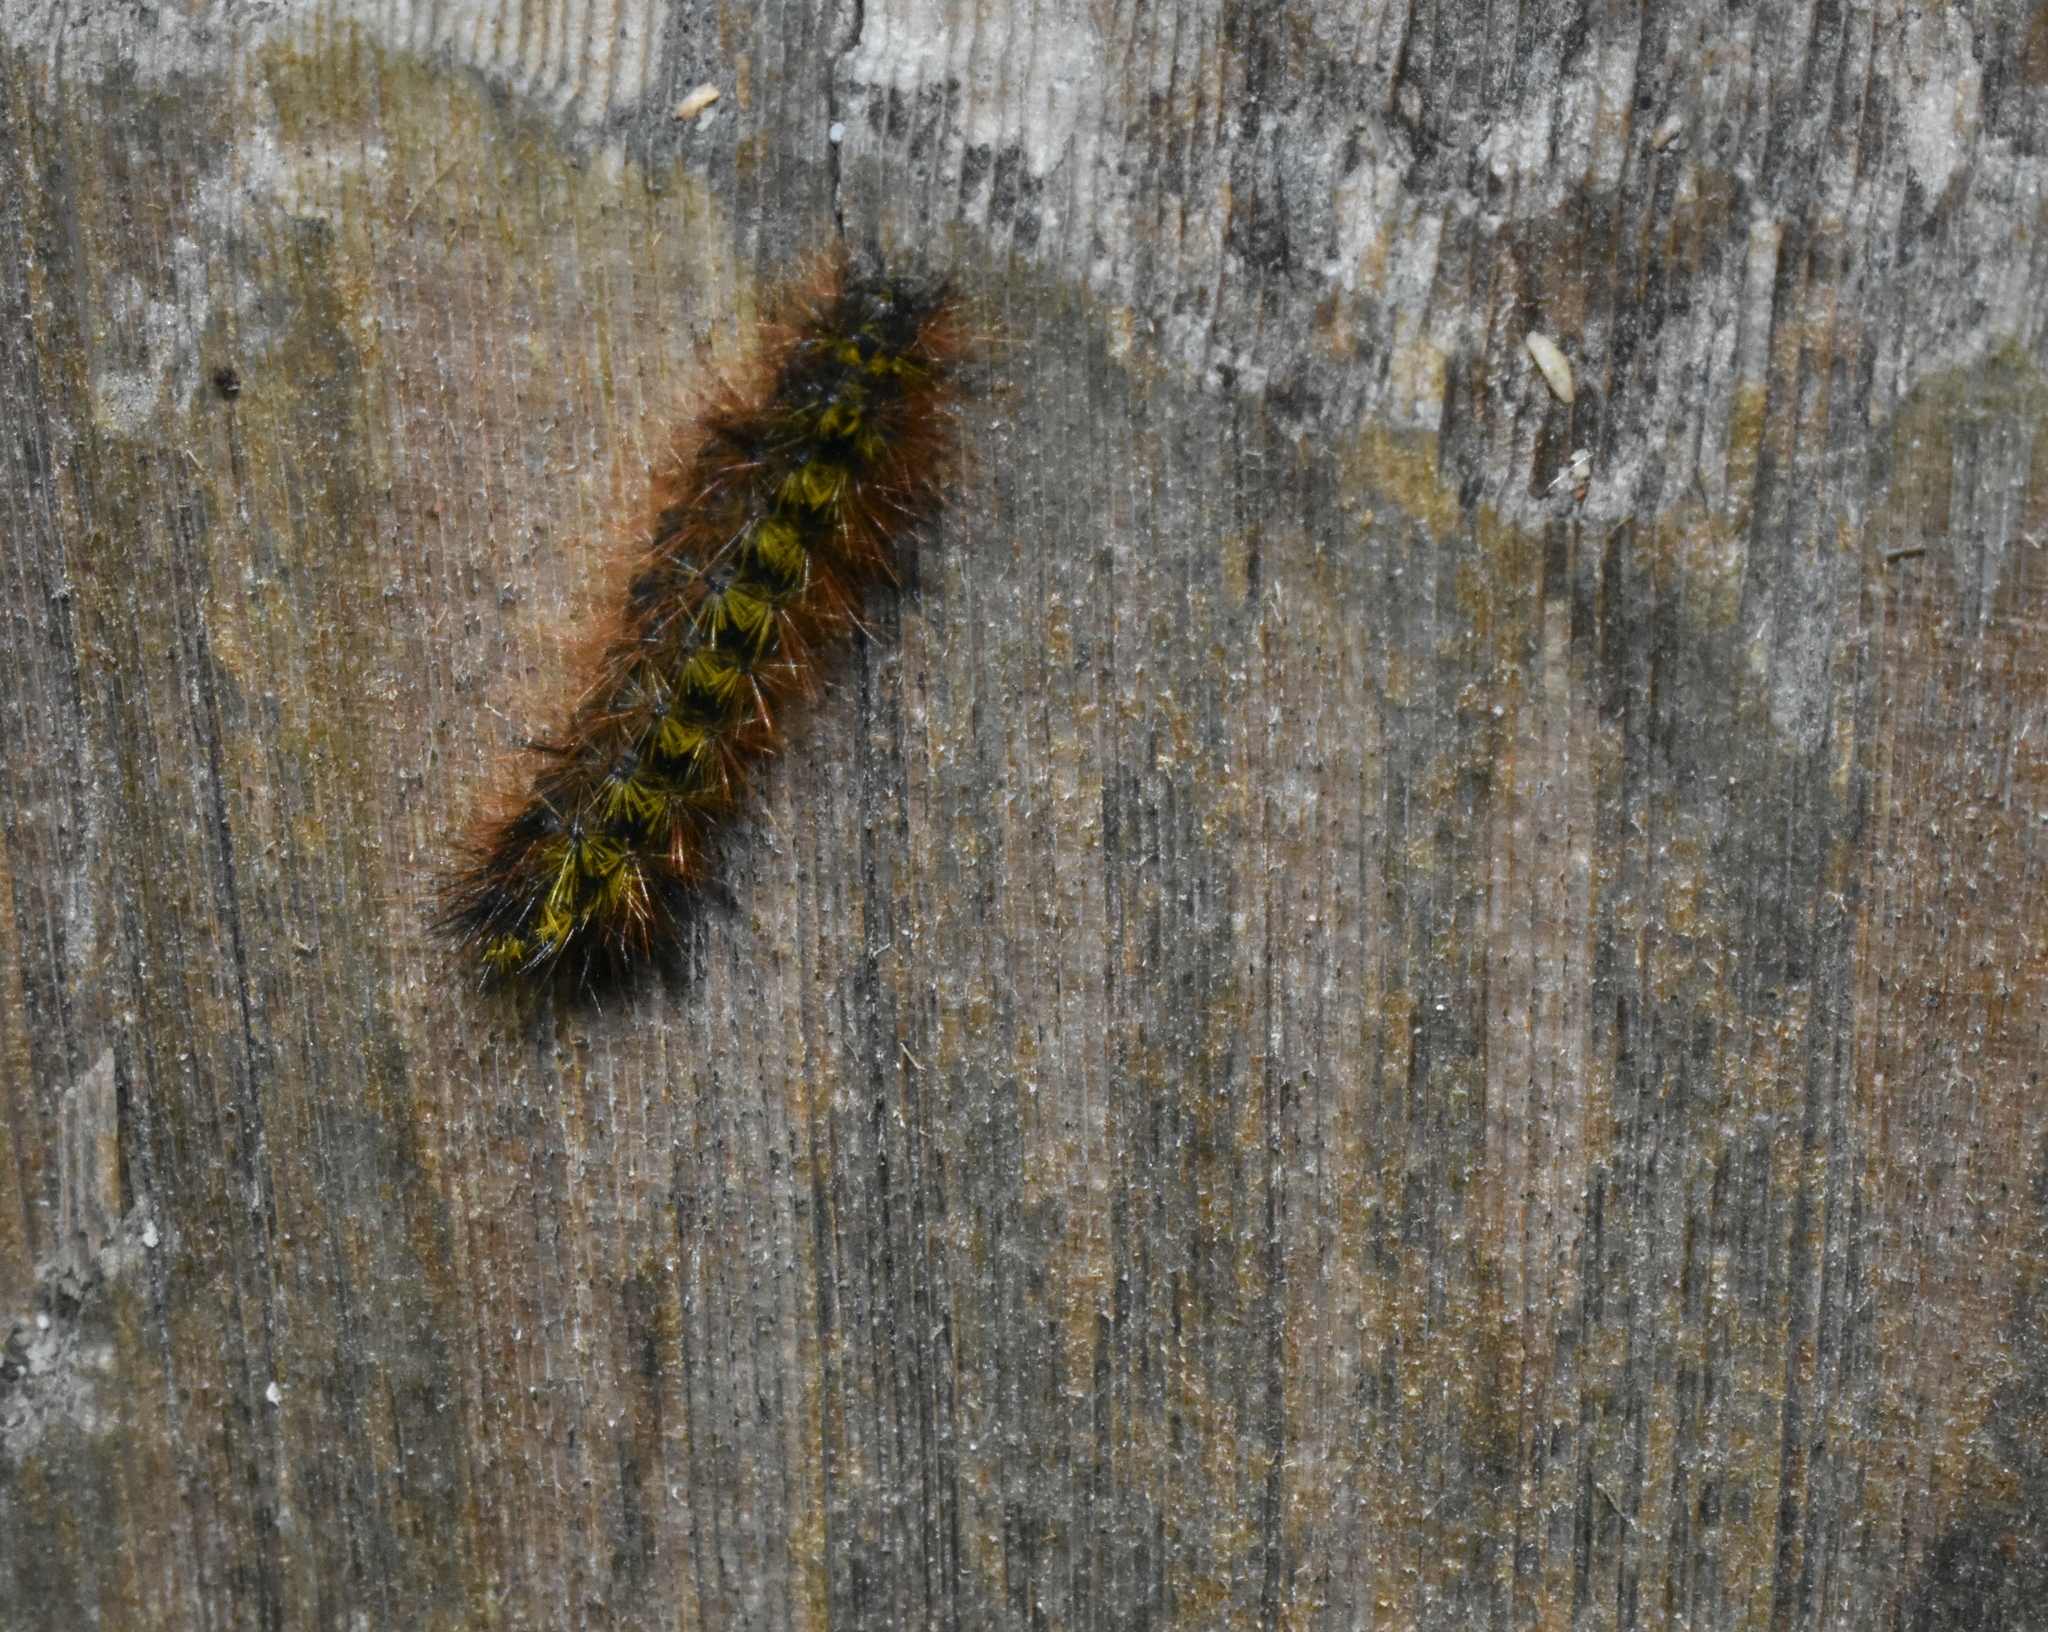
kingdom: Animalia
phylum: Arthropoda
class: Insecta
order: Lepidoptera
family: Erebidae
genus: Lophocampa
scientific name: Lophocampa argentata
